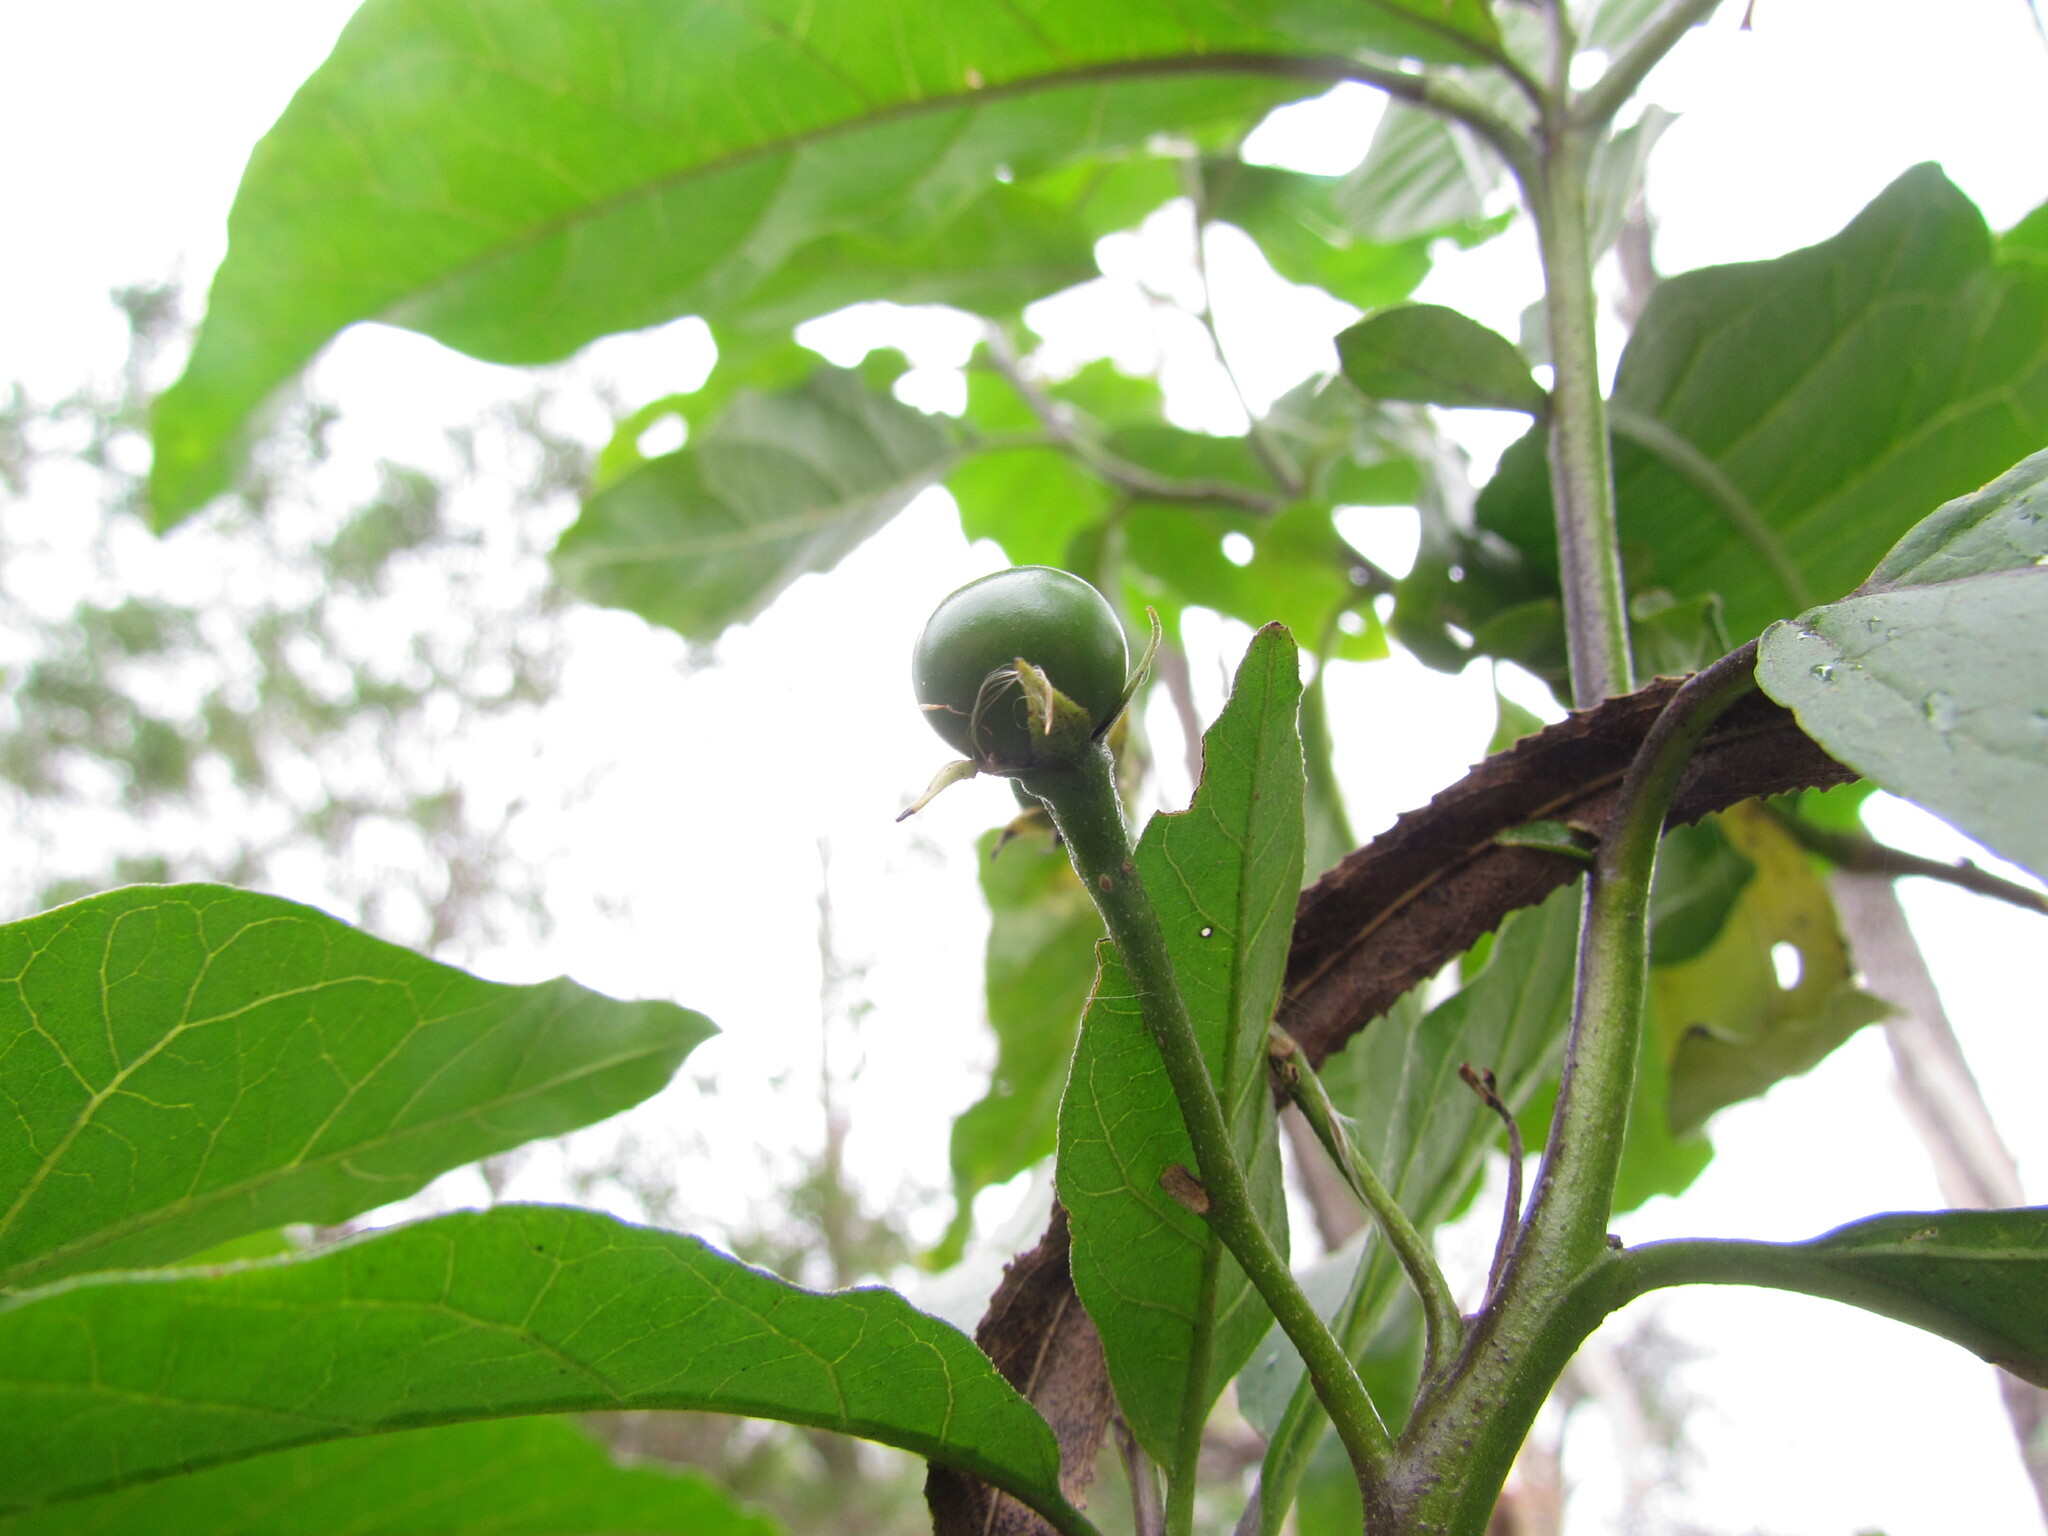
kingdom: Plantae
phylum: Tracheophyta
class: Magnoliopsida
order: Solanales
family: Solanaceae
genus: Solanum
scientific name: Solanum bonariense
